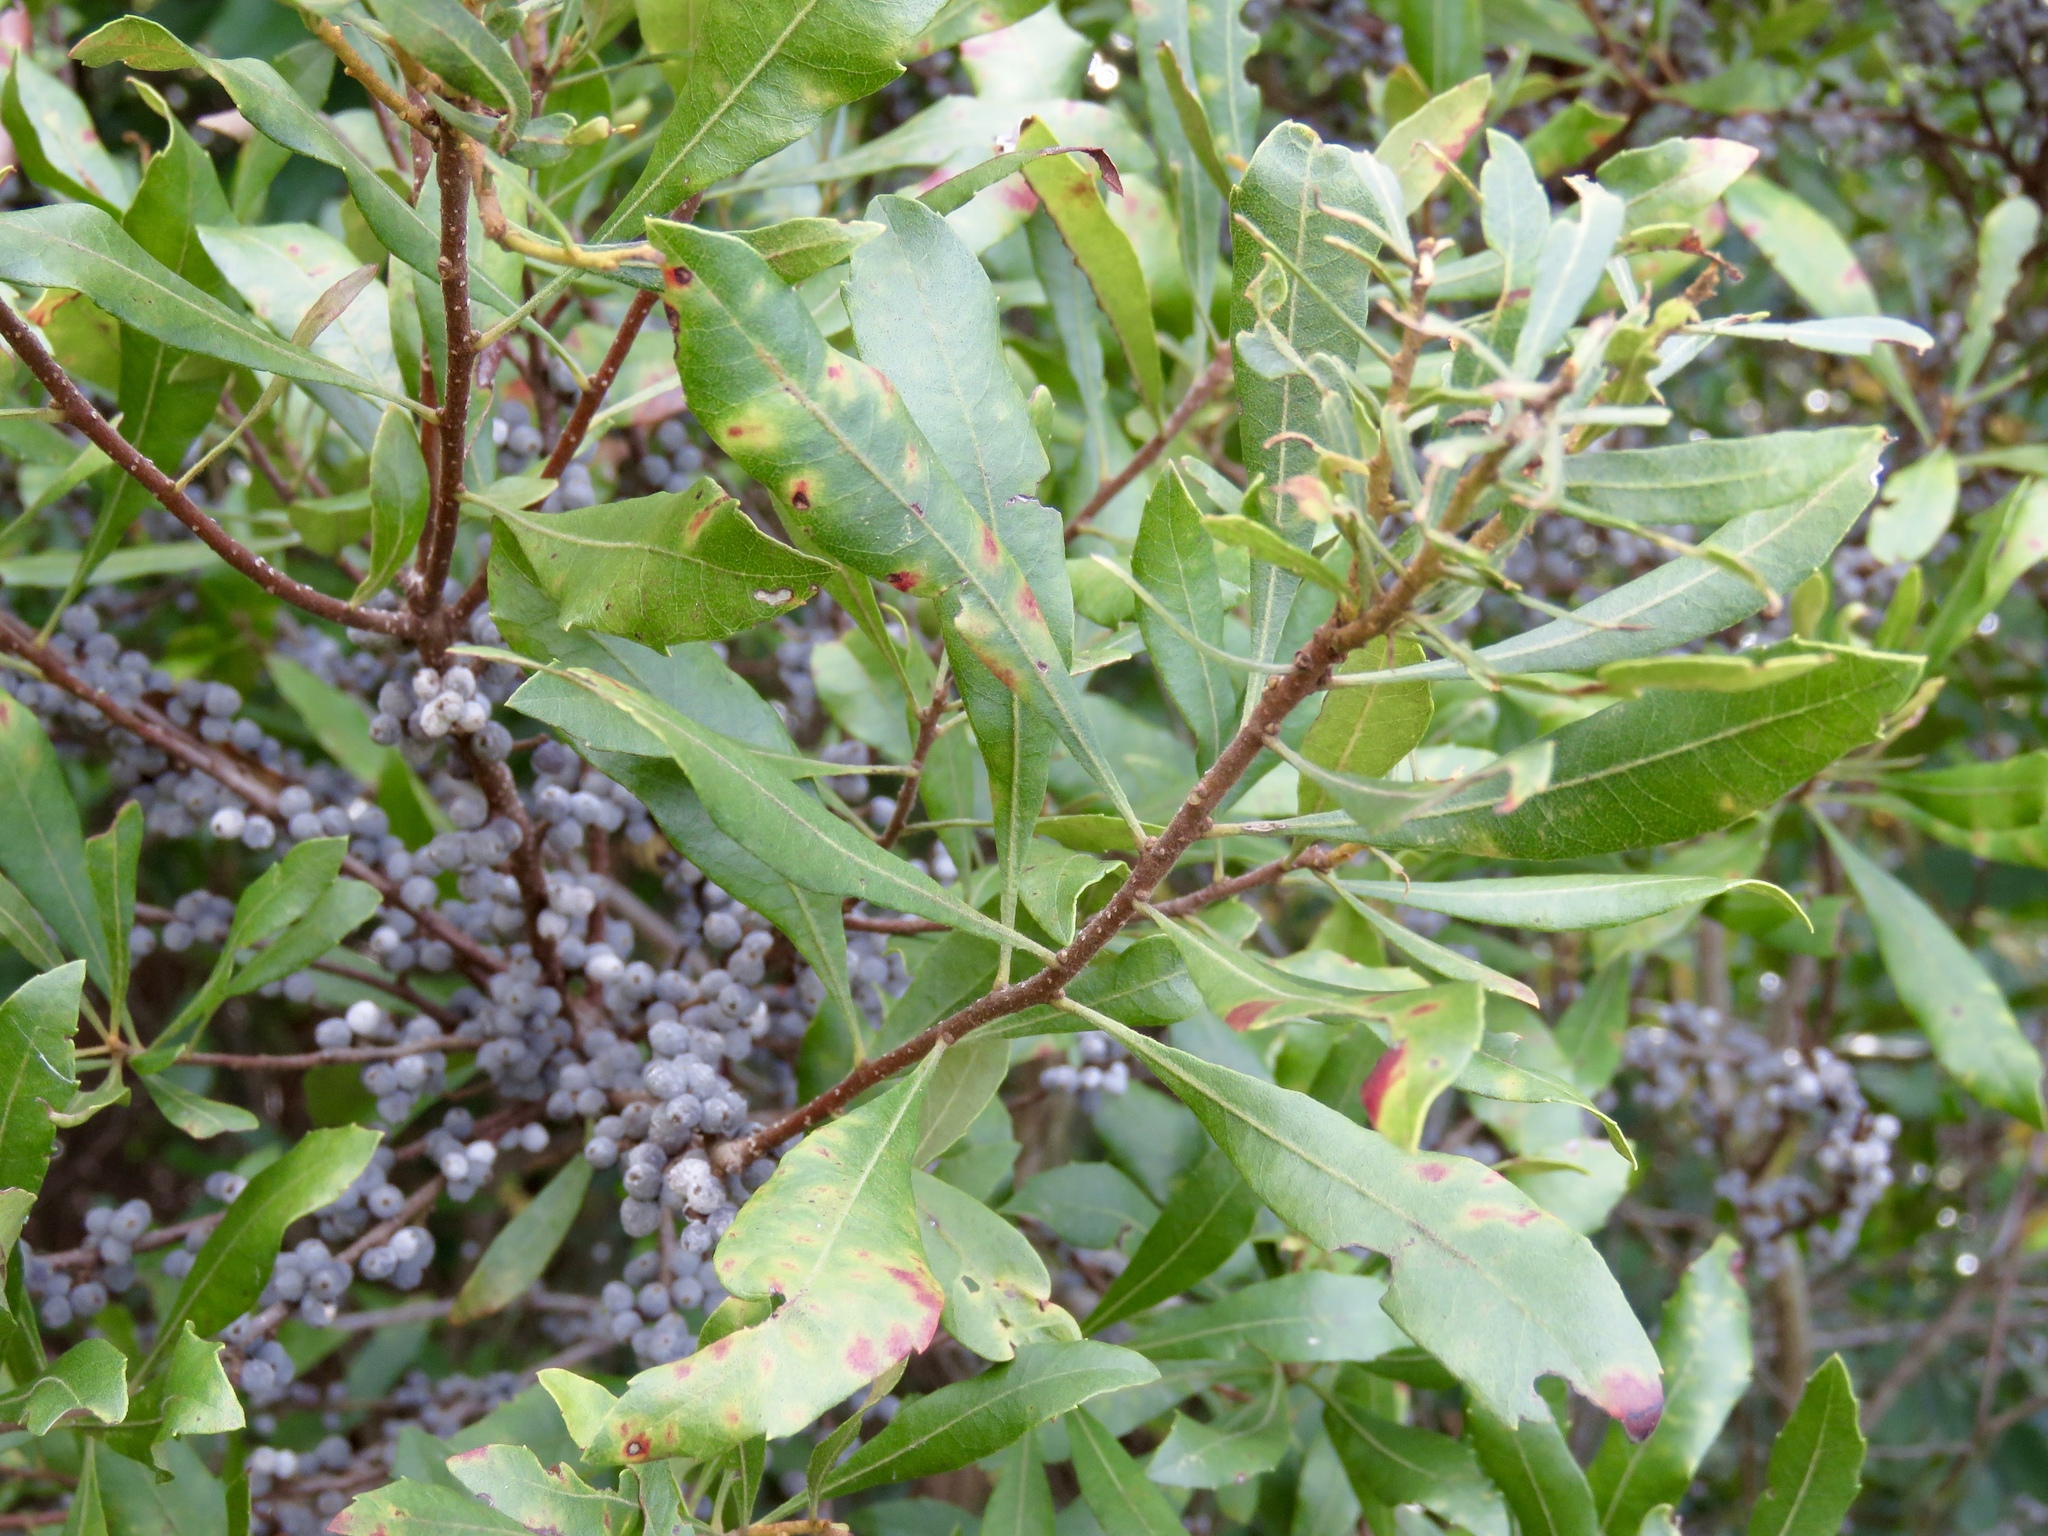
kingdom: Plantae
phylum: Tracheophyta
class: Magnoliopsida
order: Fagales
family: Myricaceae
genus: Morella
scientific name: Morella cerifera
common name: Wax myrtle
